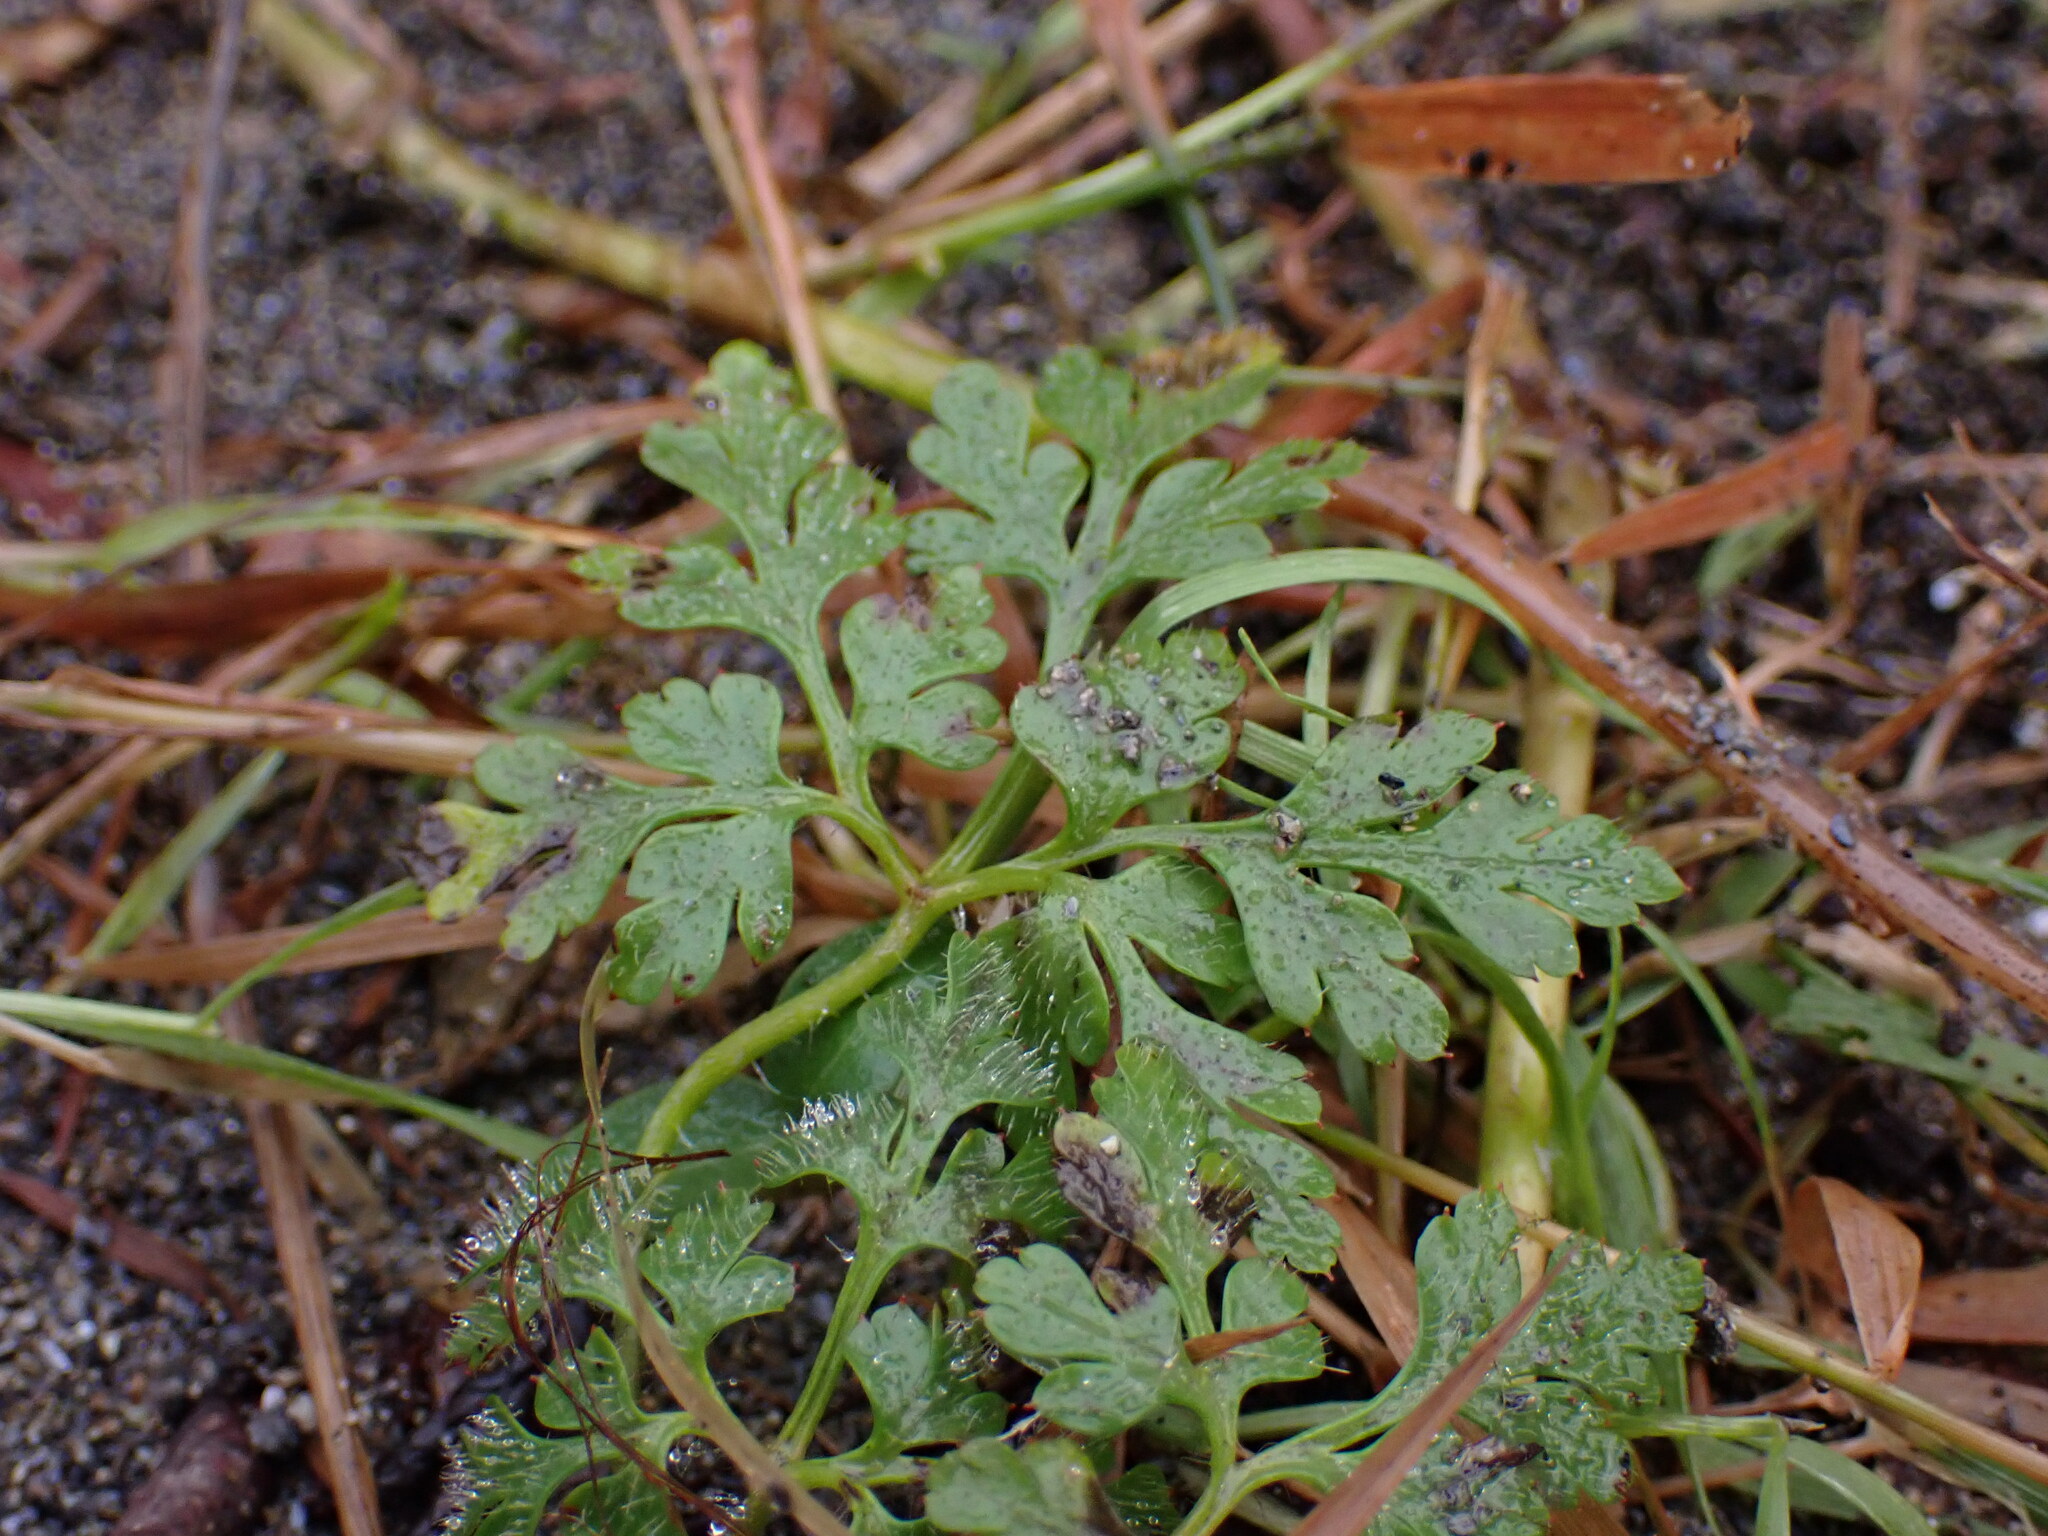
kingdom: Plantae
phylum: Tracheophyta
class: Magnoliopsida
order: Geraniales
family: Geraniaceae
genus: Geranium
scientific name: Geranium robertianum
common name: Herb-robert
